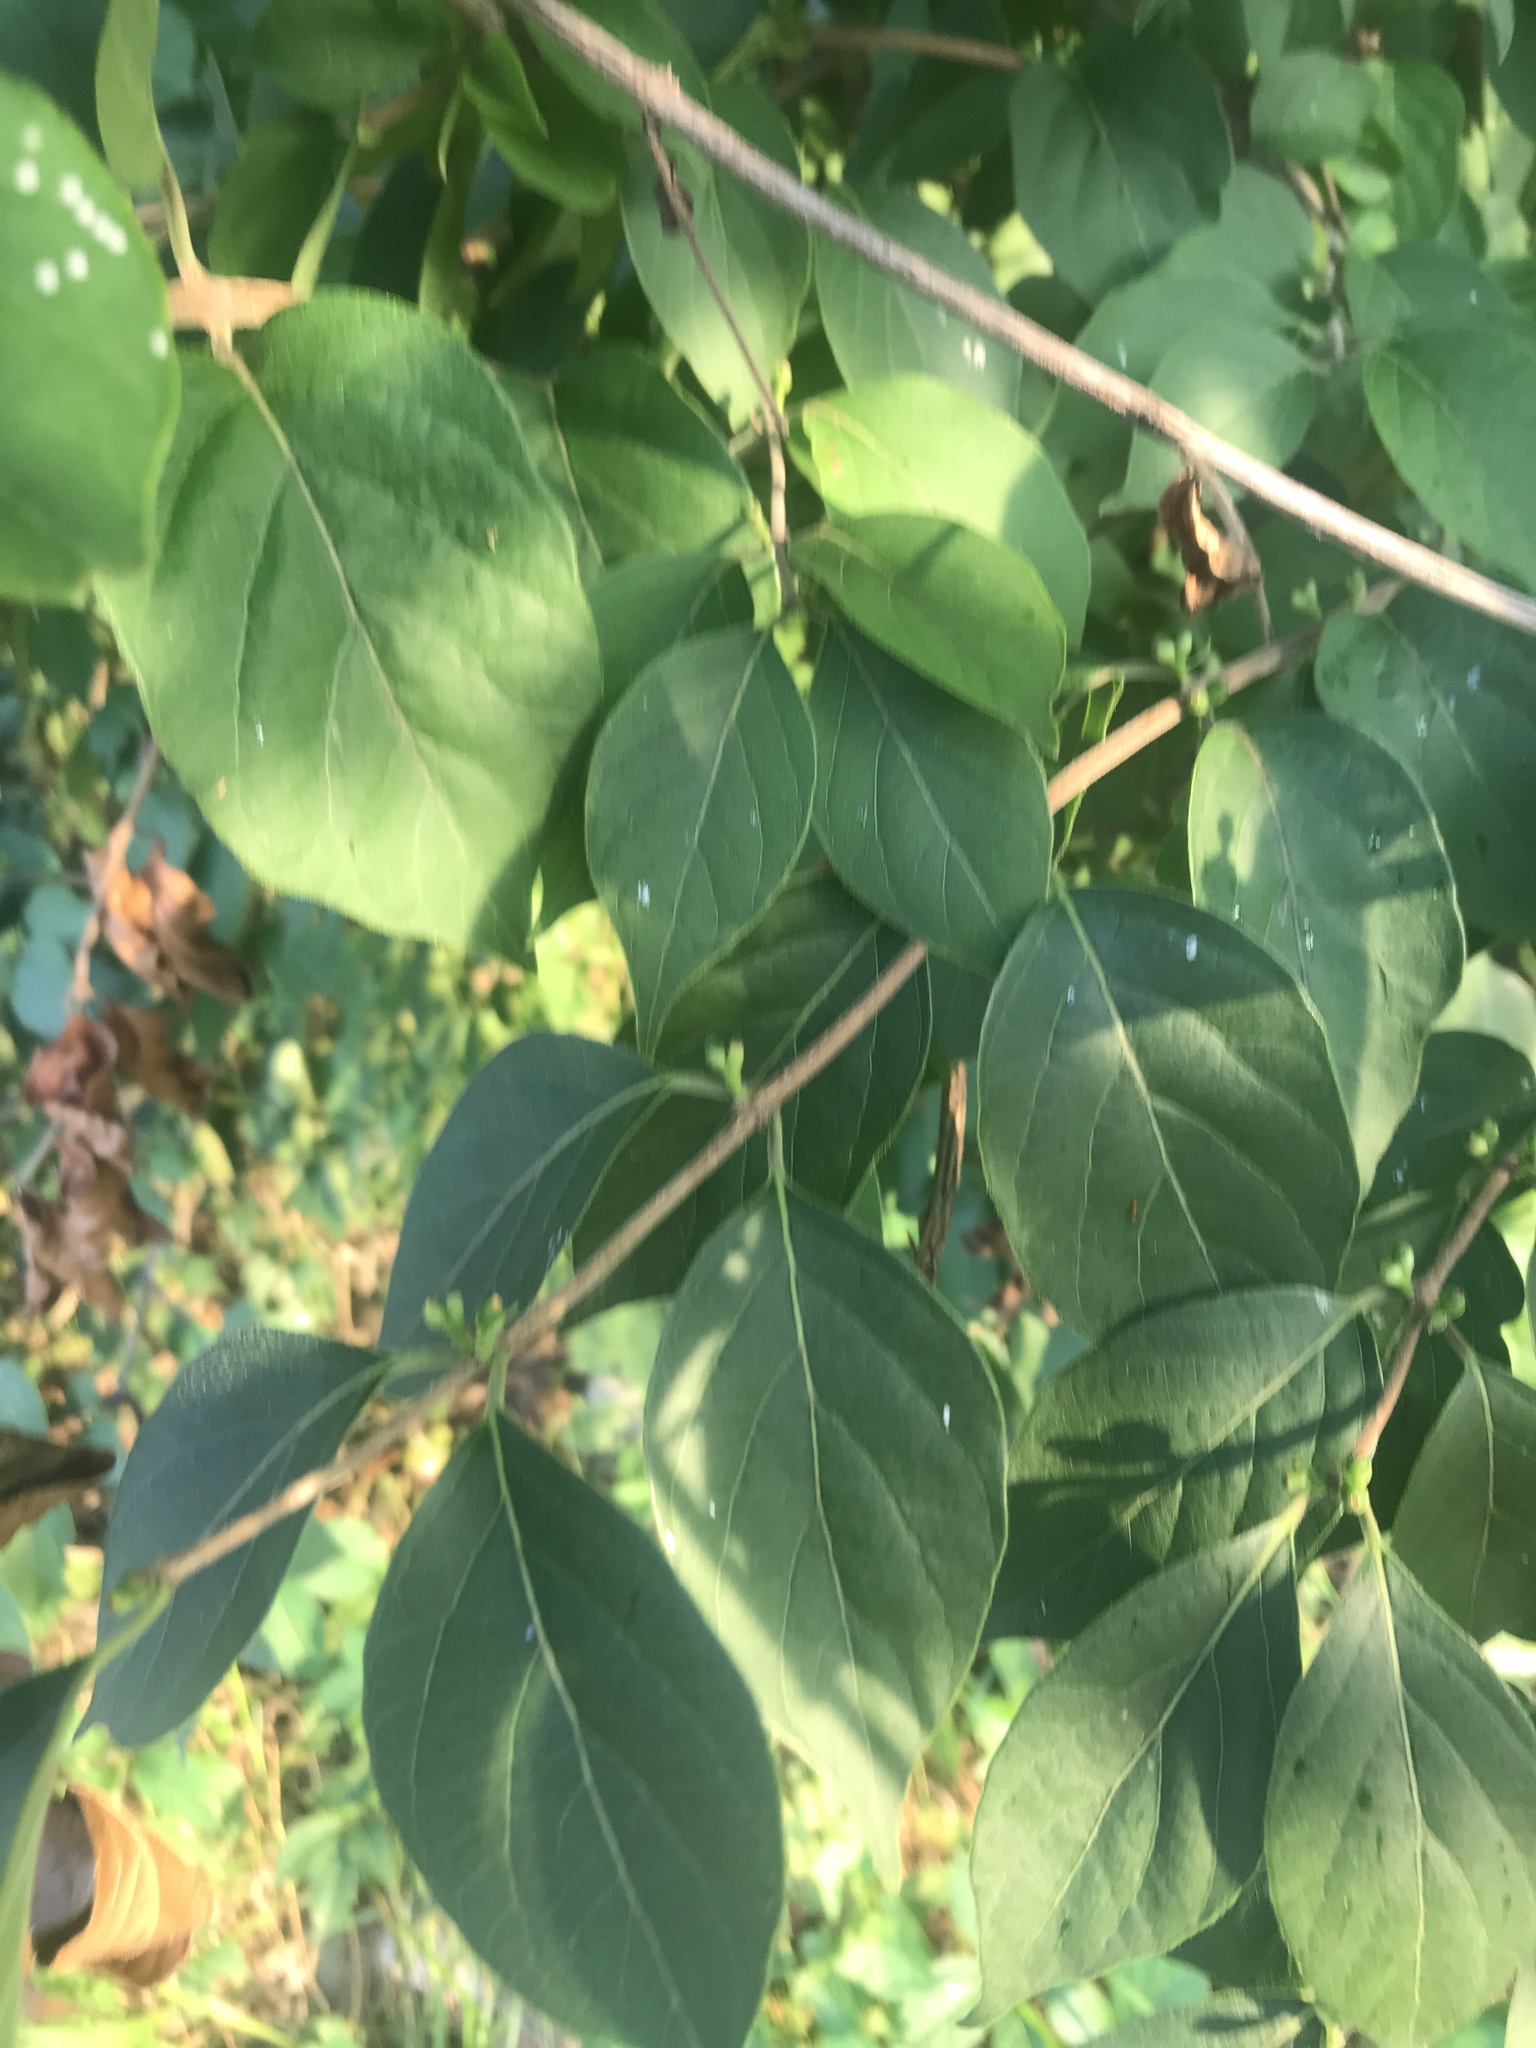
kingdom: Plantae
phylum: Tracheophyta
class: Magnoliopsida
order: Dipsacales
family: Caprifoliaceae
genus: Lonicera
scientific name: Lonicera maackii
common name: Amur honeysuckle
